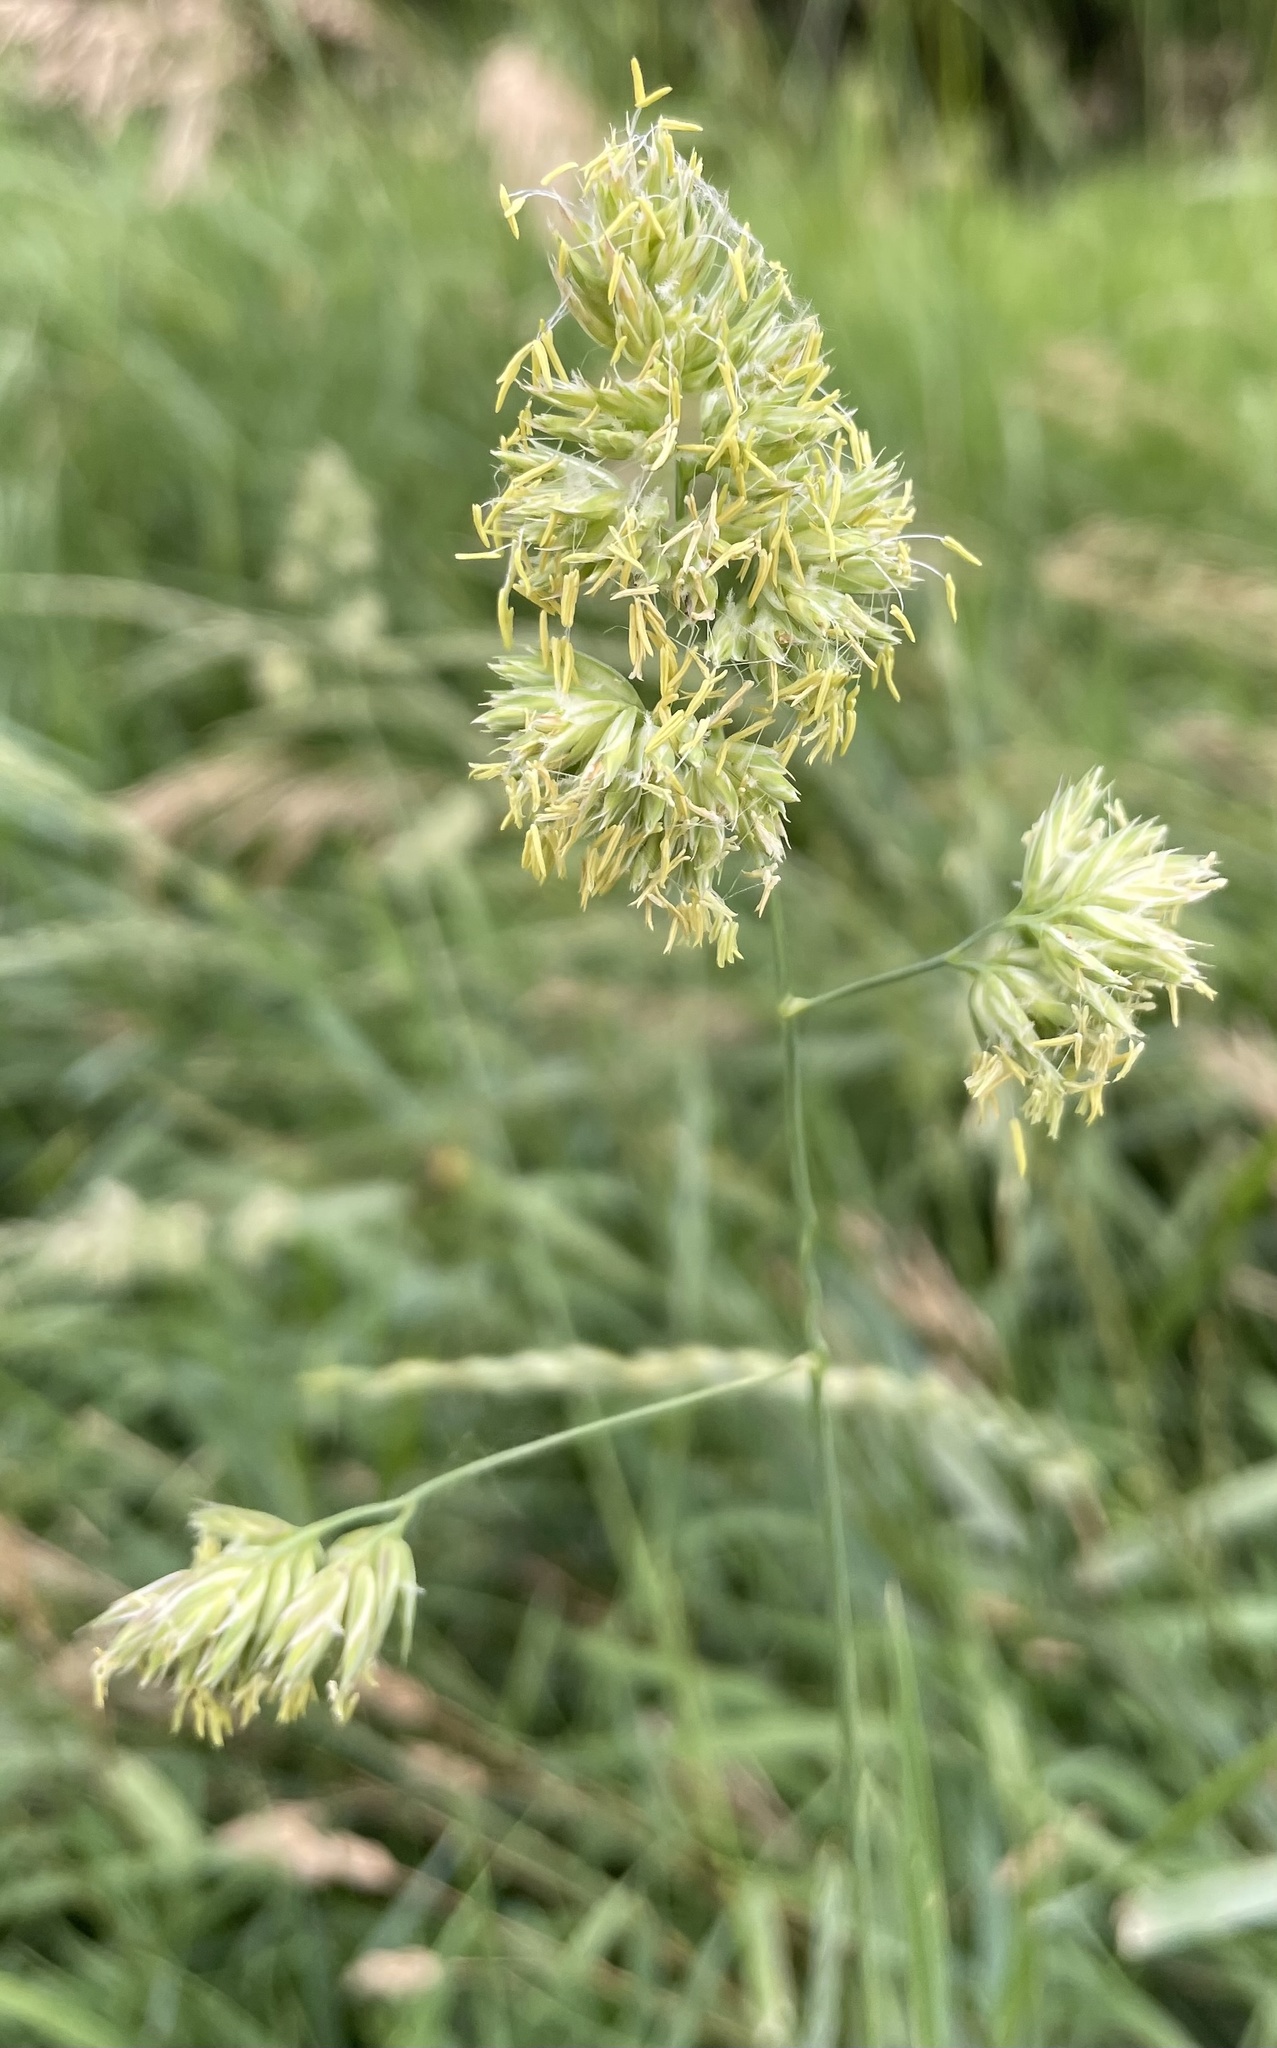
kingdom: Plantae
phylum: Tracheophyta
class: Liliopsida
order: Poales
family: Poaceae
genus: Dactylis
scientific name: Dactylis glomerata
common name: Orchardgrass
